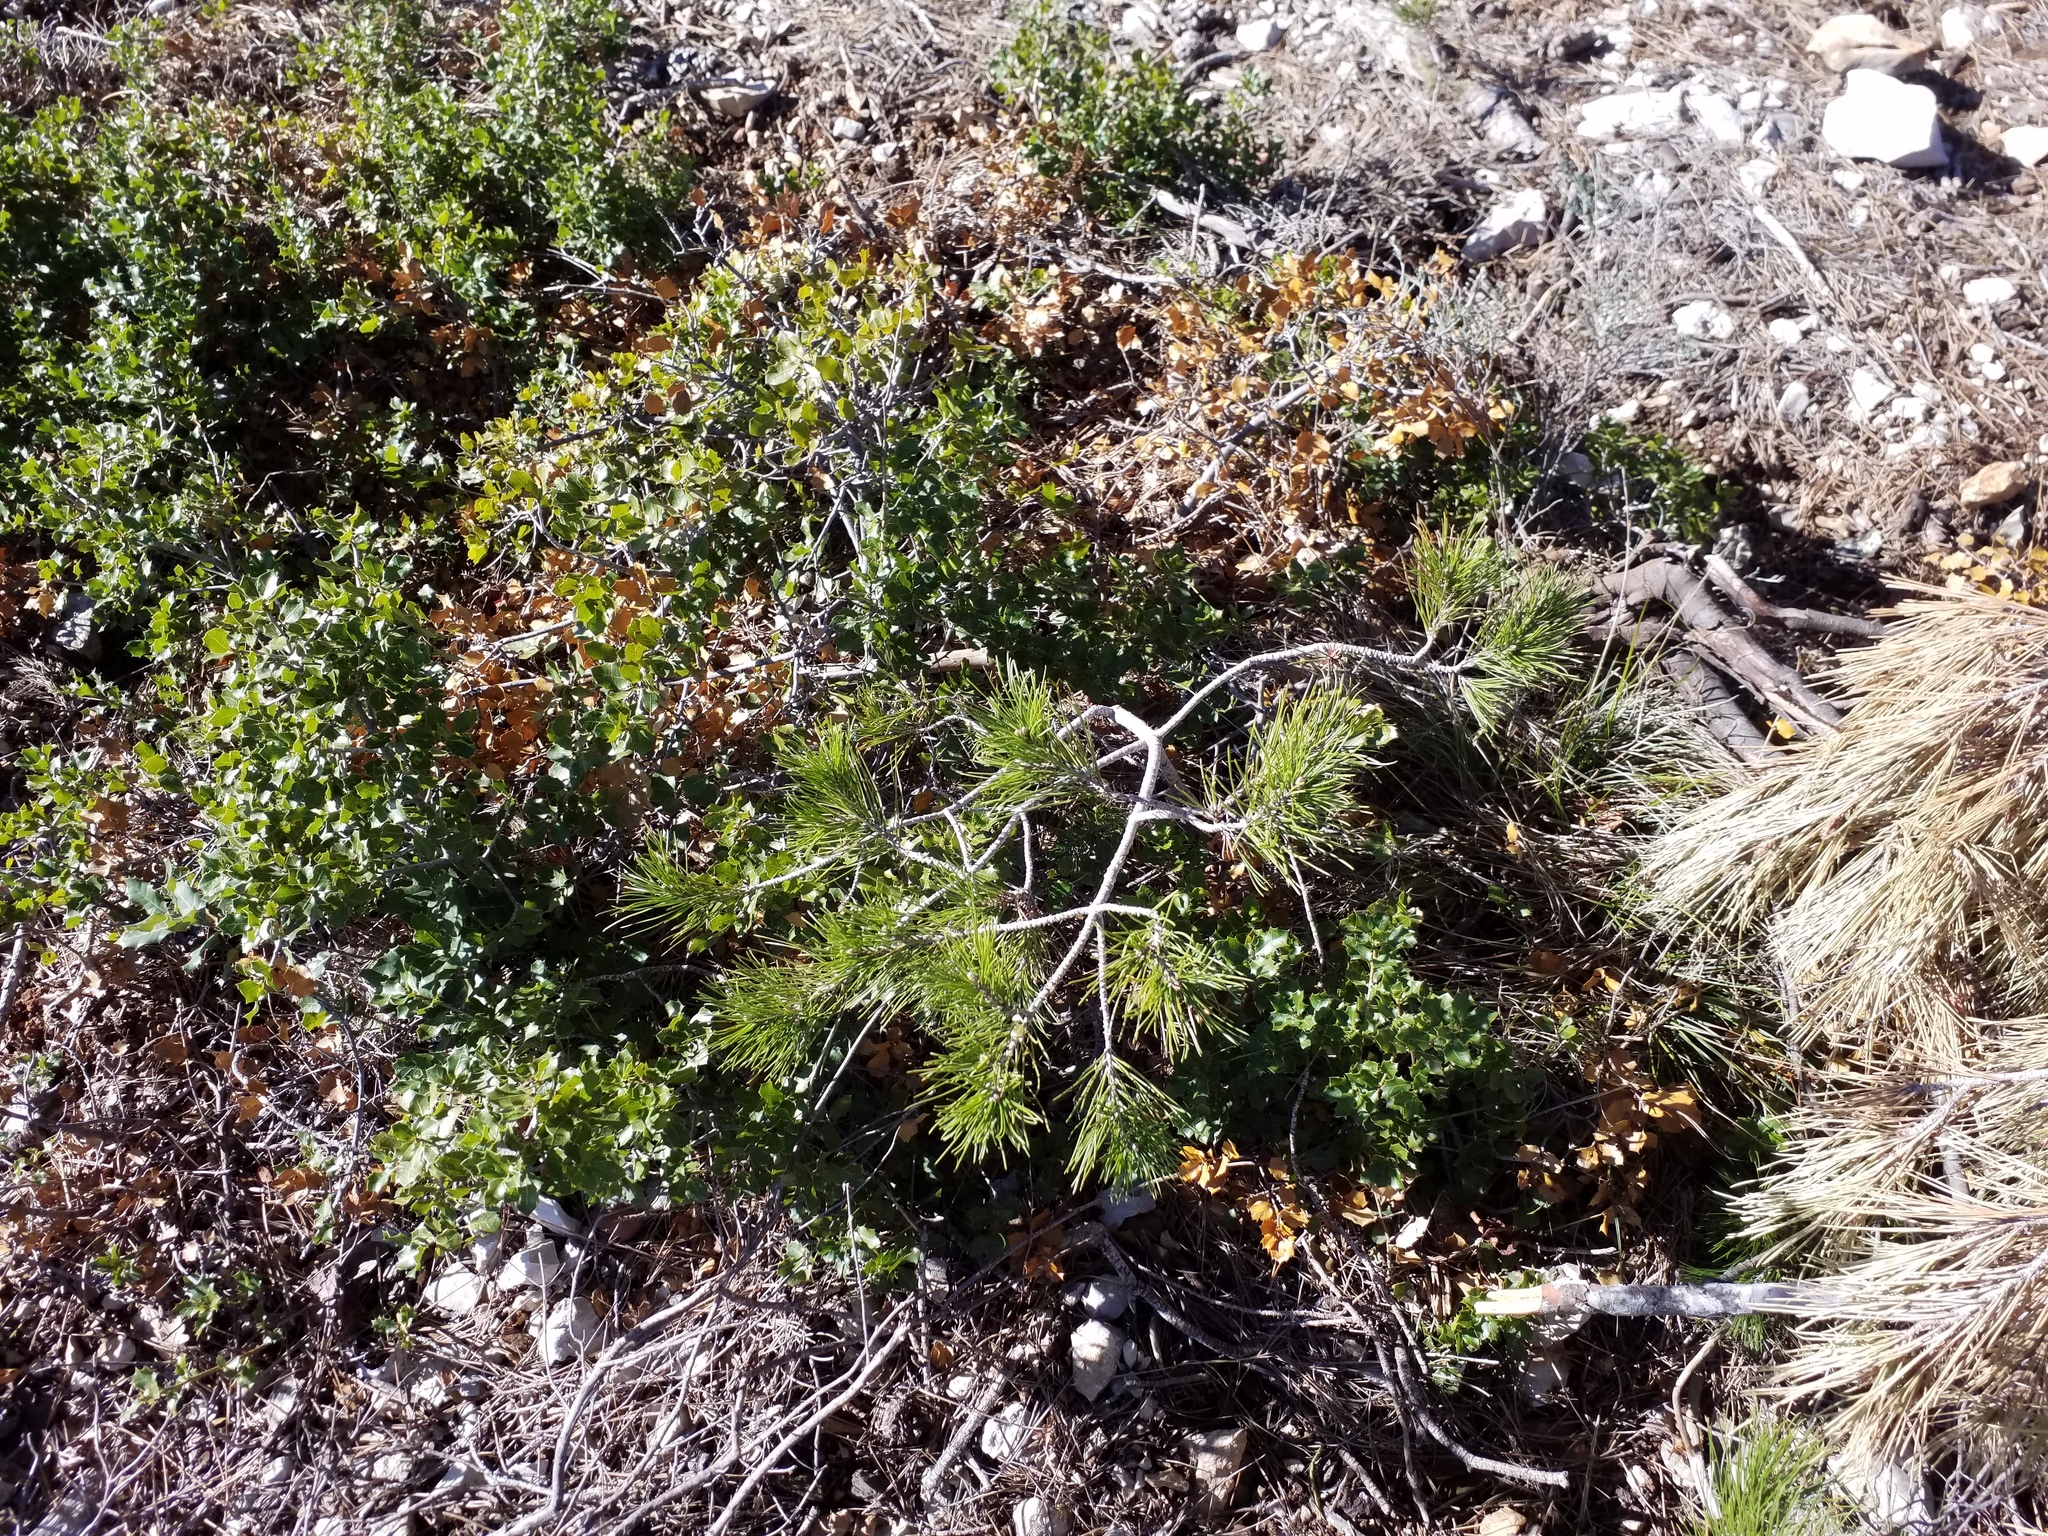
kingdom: Plantae
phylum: Tracheophyta
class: Pinopsida
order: Pinales
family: Pinaceae
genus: Pinus
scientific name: Pinus halepensis
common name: Aleppo pine
